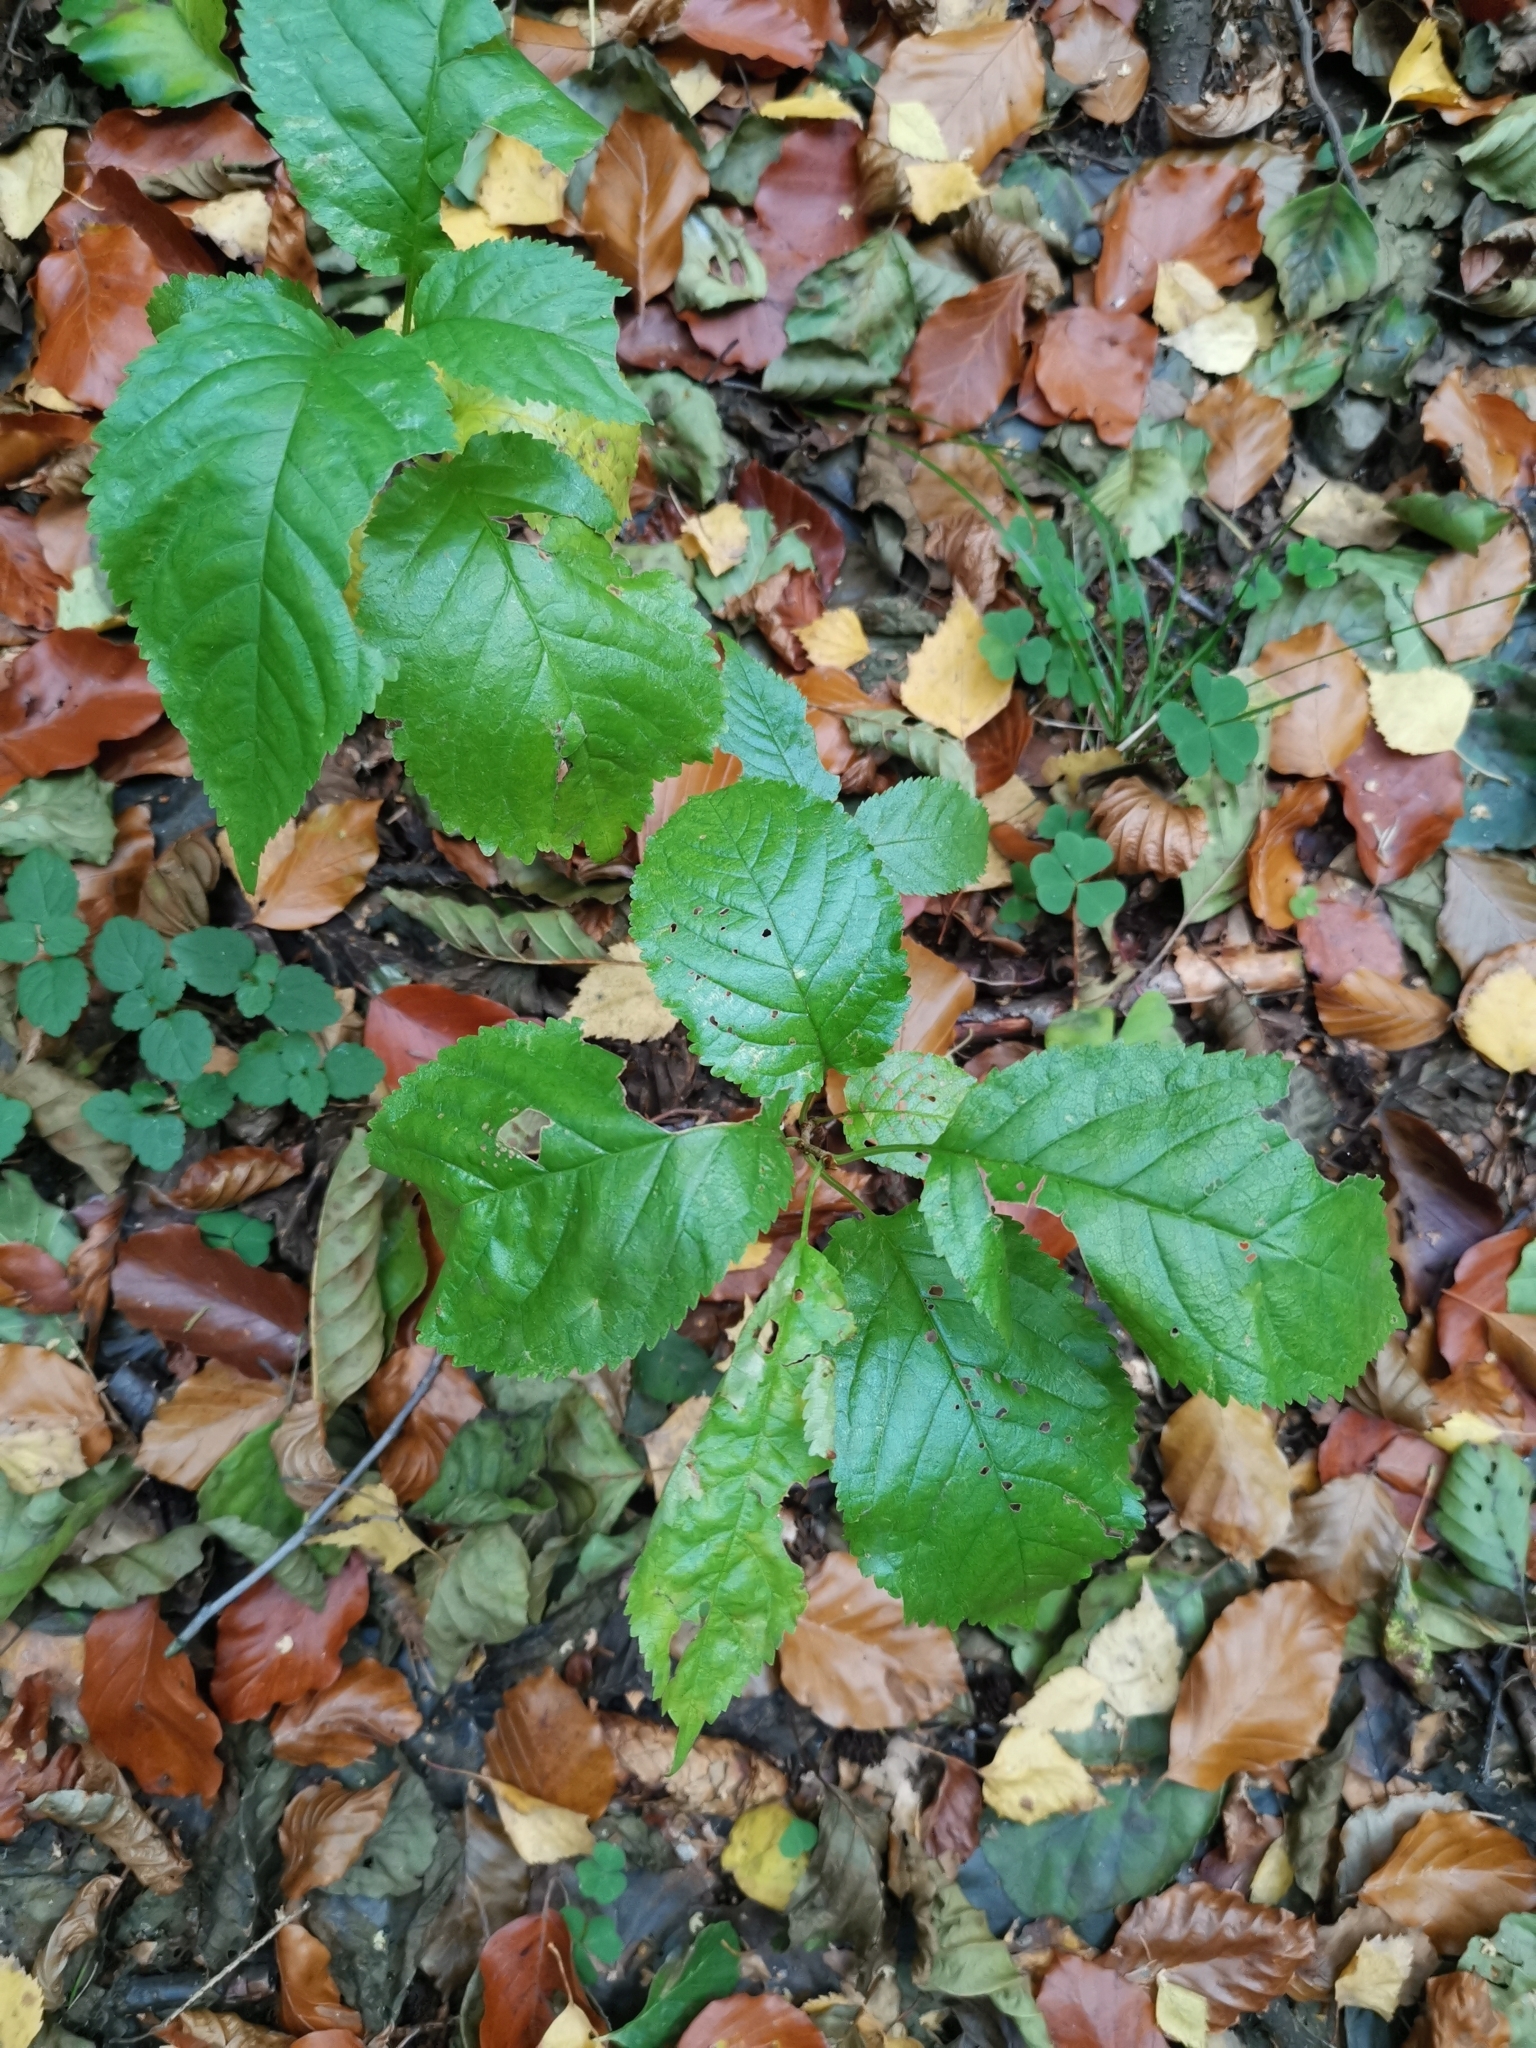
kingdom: Plantae
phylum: Tracheophyta
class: Magnoliopsida
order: Rosales
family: Rosaceae
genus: Prunus
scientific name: Prunus avium
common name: Sweet cherry
